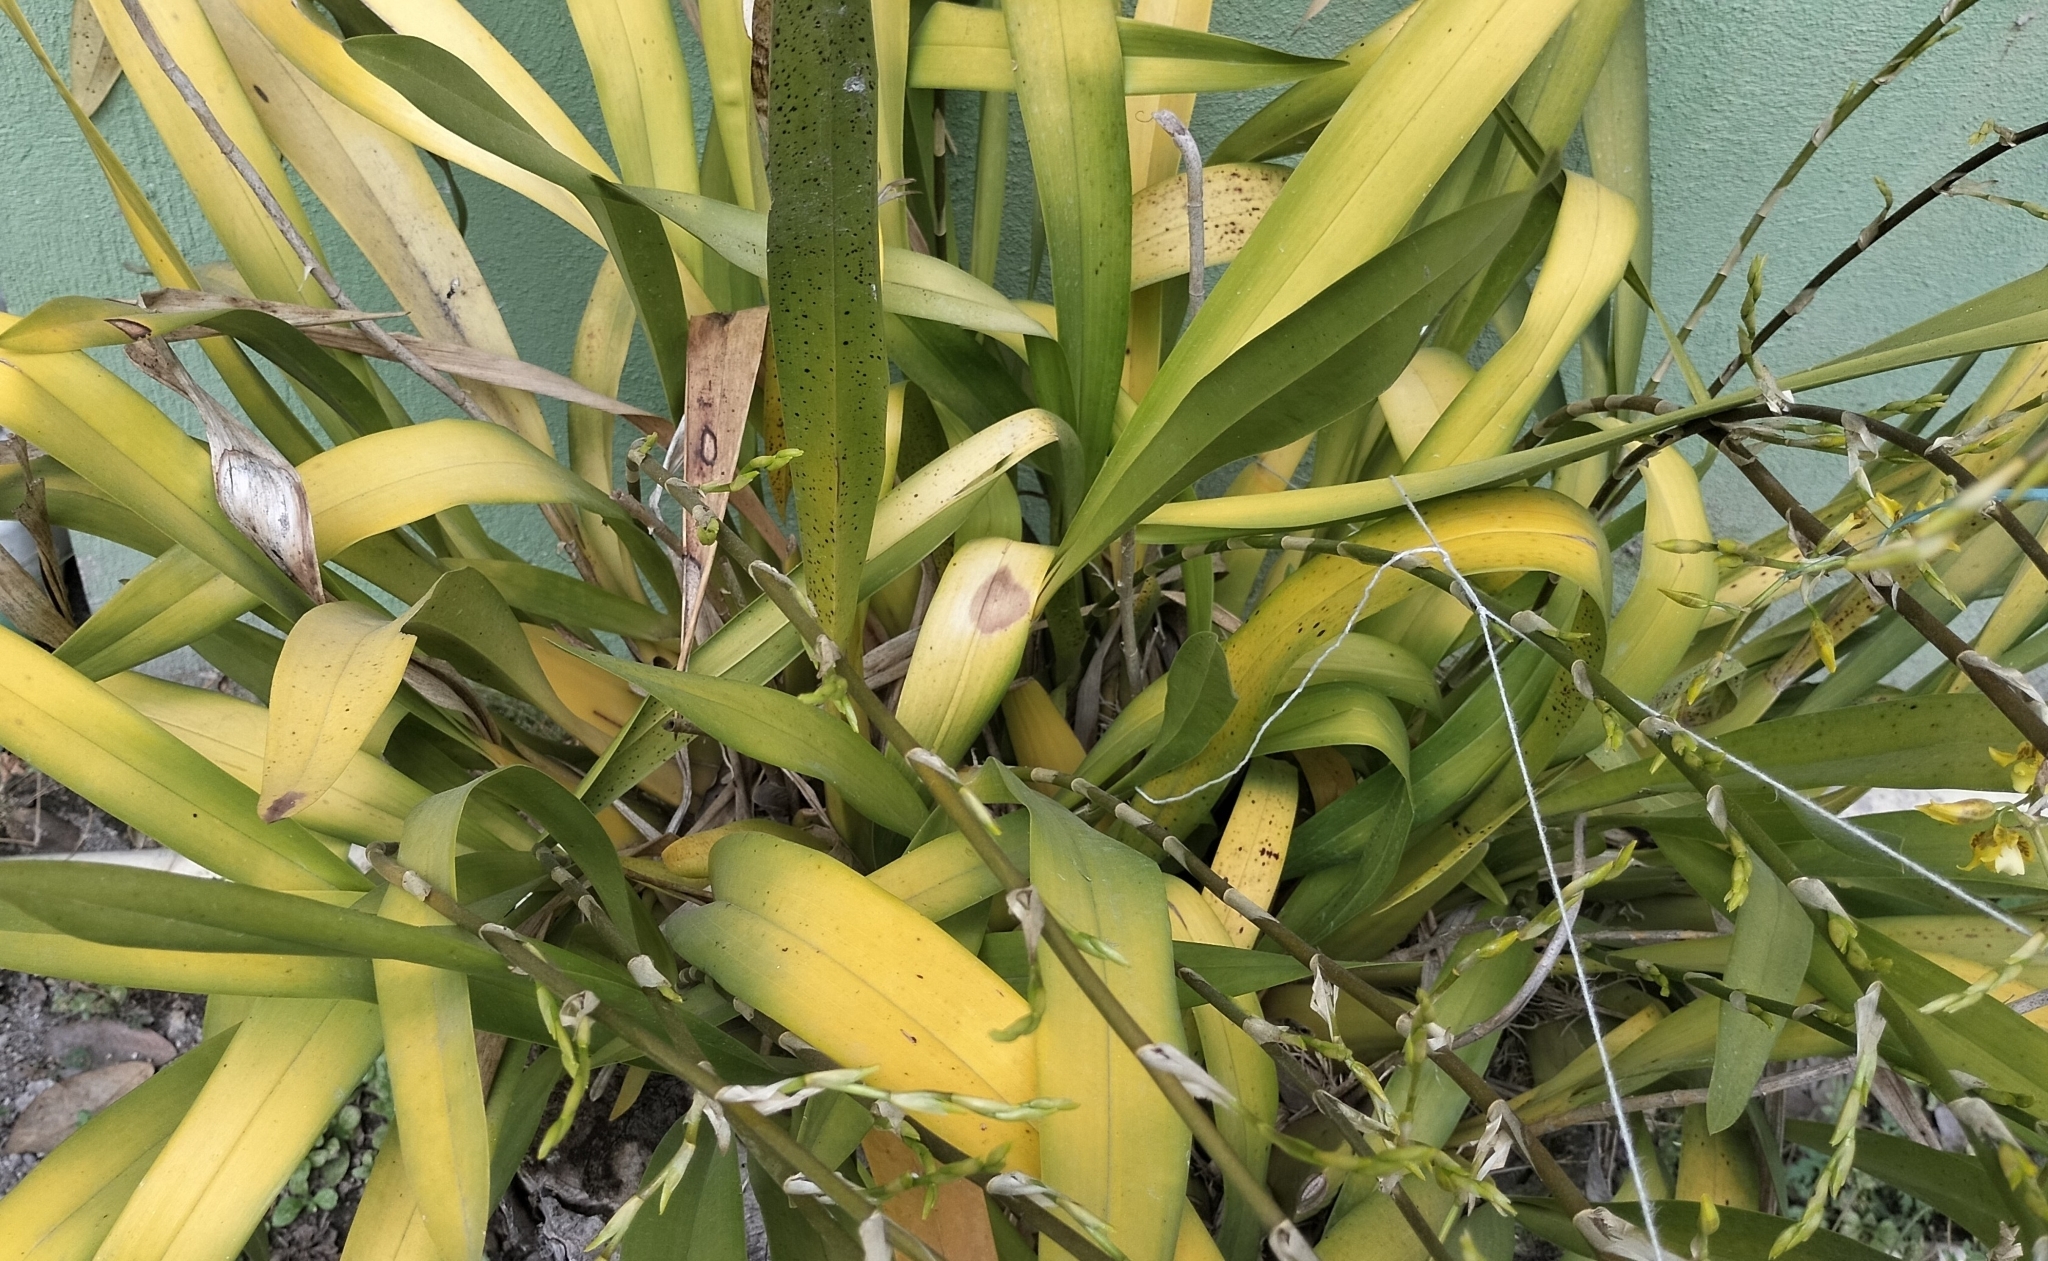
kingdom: Plantae
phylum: Tracheophyta
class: Liliopsida
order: Asparagales
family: Orchidaceae
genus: Oncidium
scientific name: Oncidium sphacelatum
